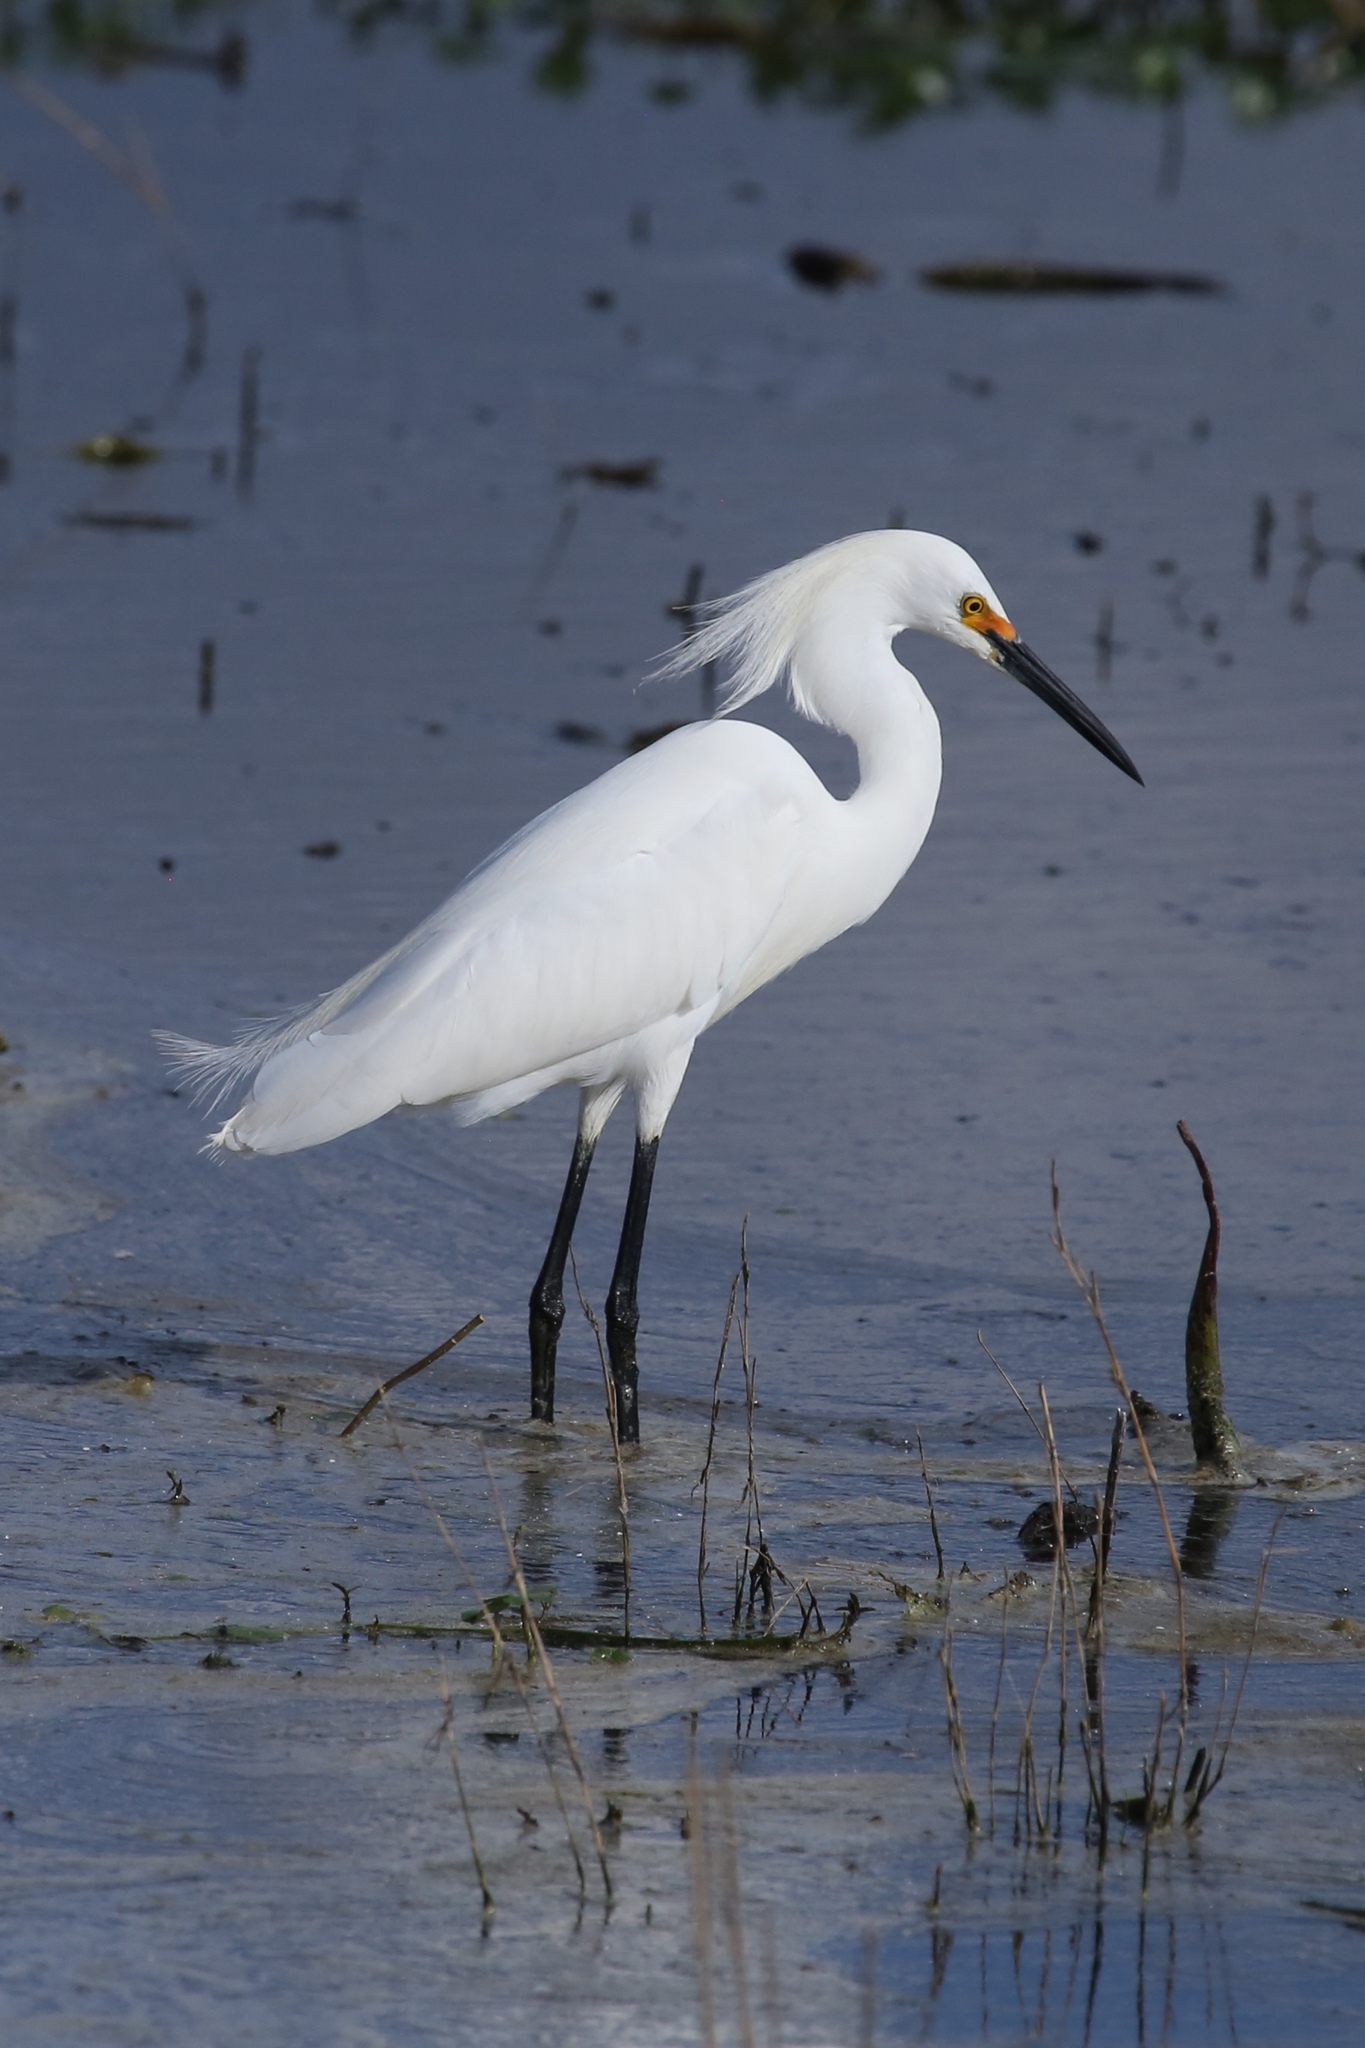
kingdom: Animalia
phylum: Chordata
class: Aves
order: Pelecaniformes
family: Ardeidae
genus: Egretta
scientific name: Egretta thula
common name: Snowy egret
